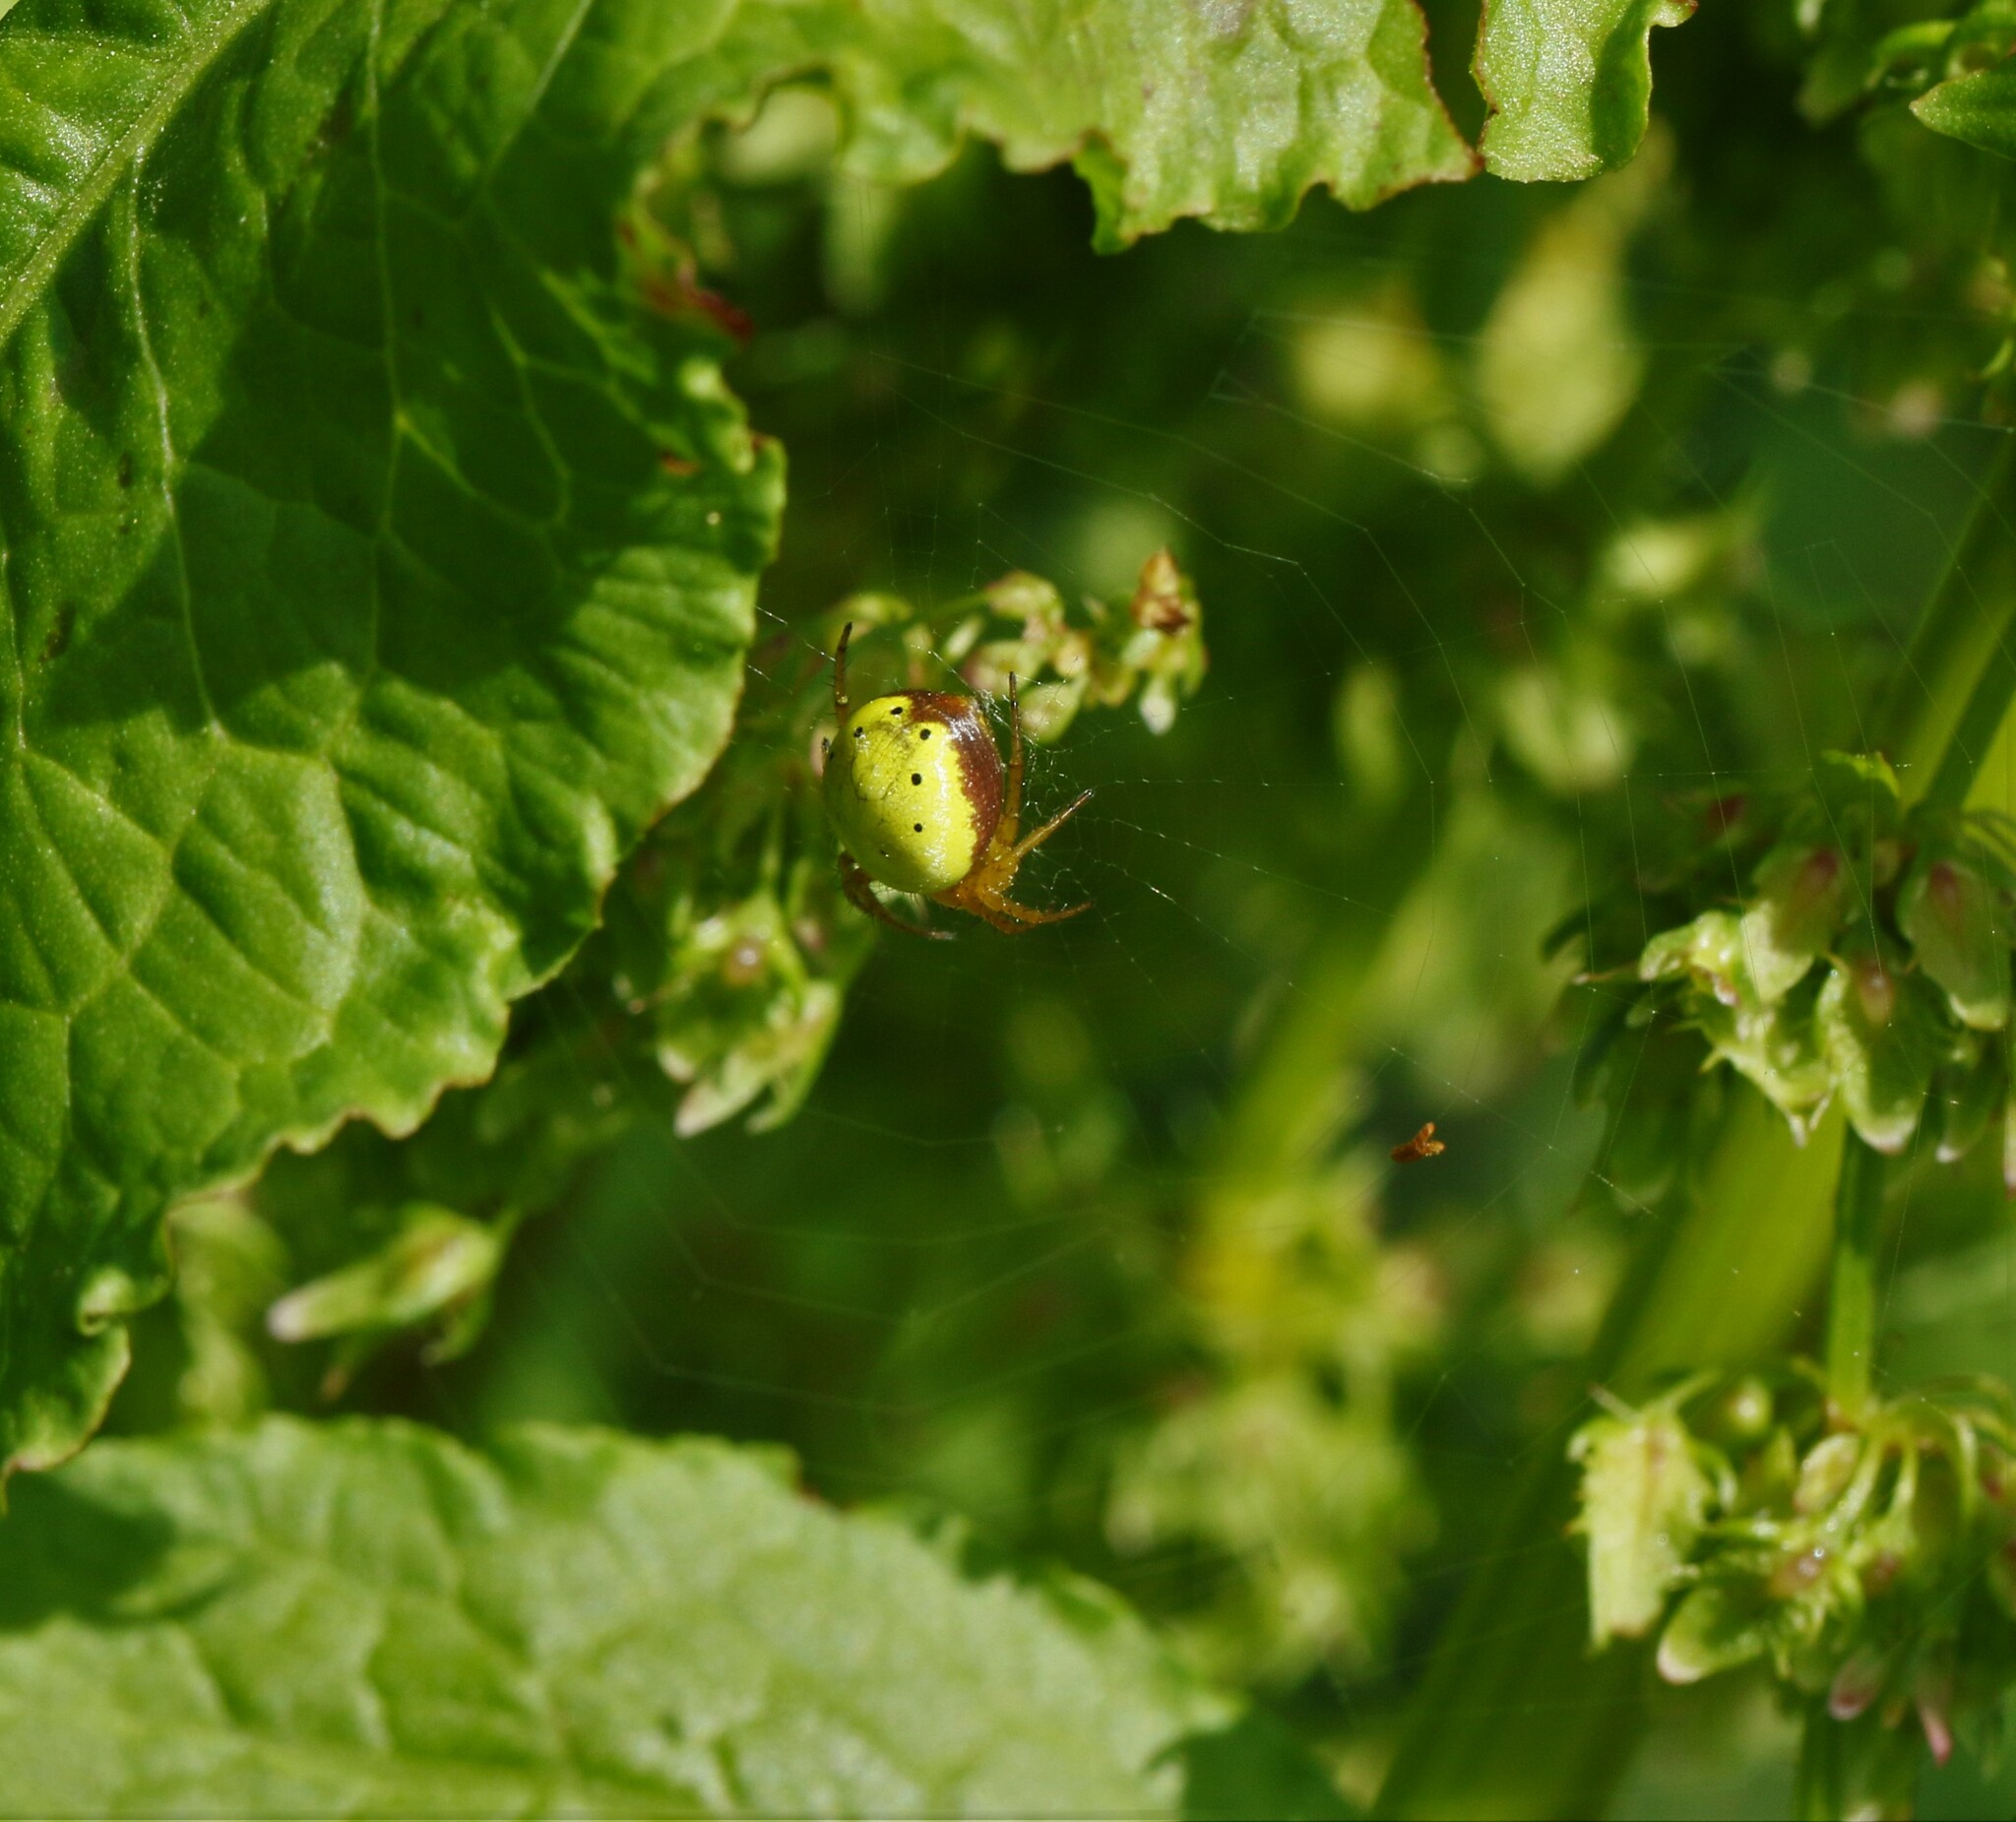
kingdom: Animalia
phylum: Arthropoda
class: Arachnida
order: Araneae
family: Araneidae
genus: Araniella
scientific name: Araniella displicata
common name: Sixspotted orb weaver
